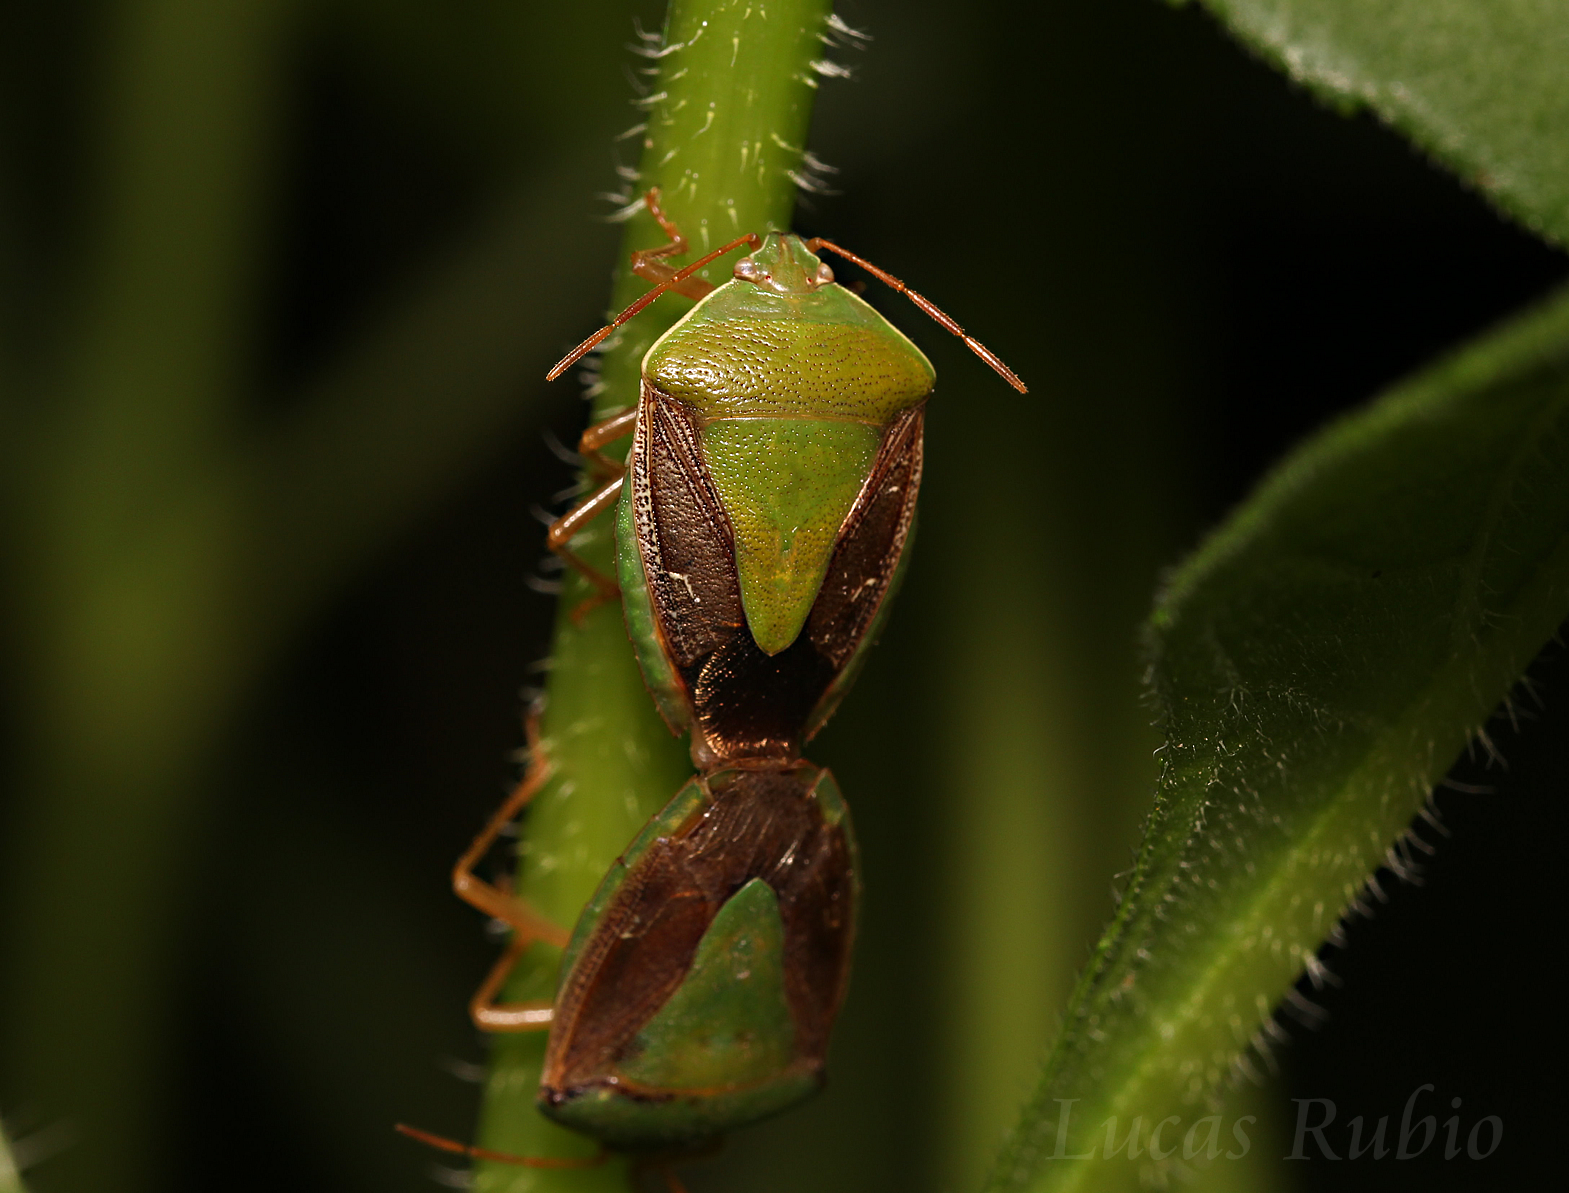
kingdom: Animalia
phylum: Arthropoda
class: Insecta
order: Hemiptera
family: Pentatomidae
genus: Edessa
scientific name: Edessa meditabunda
